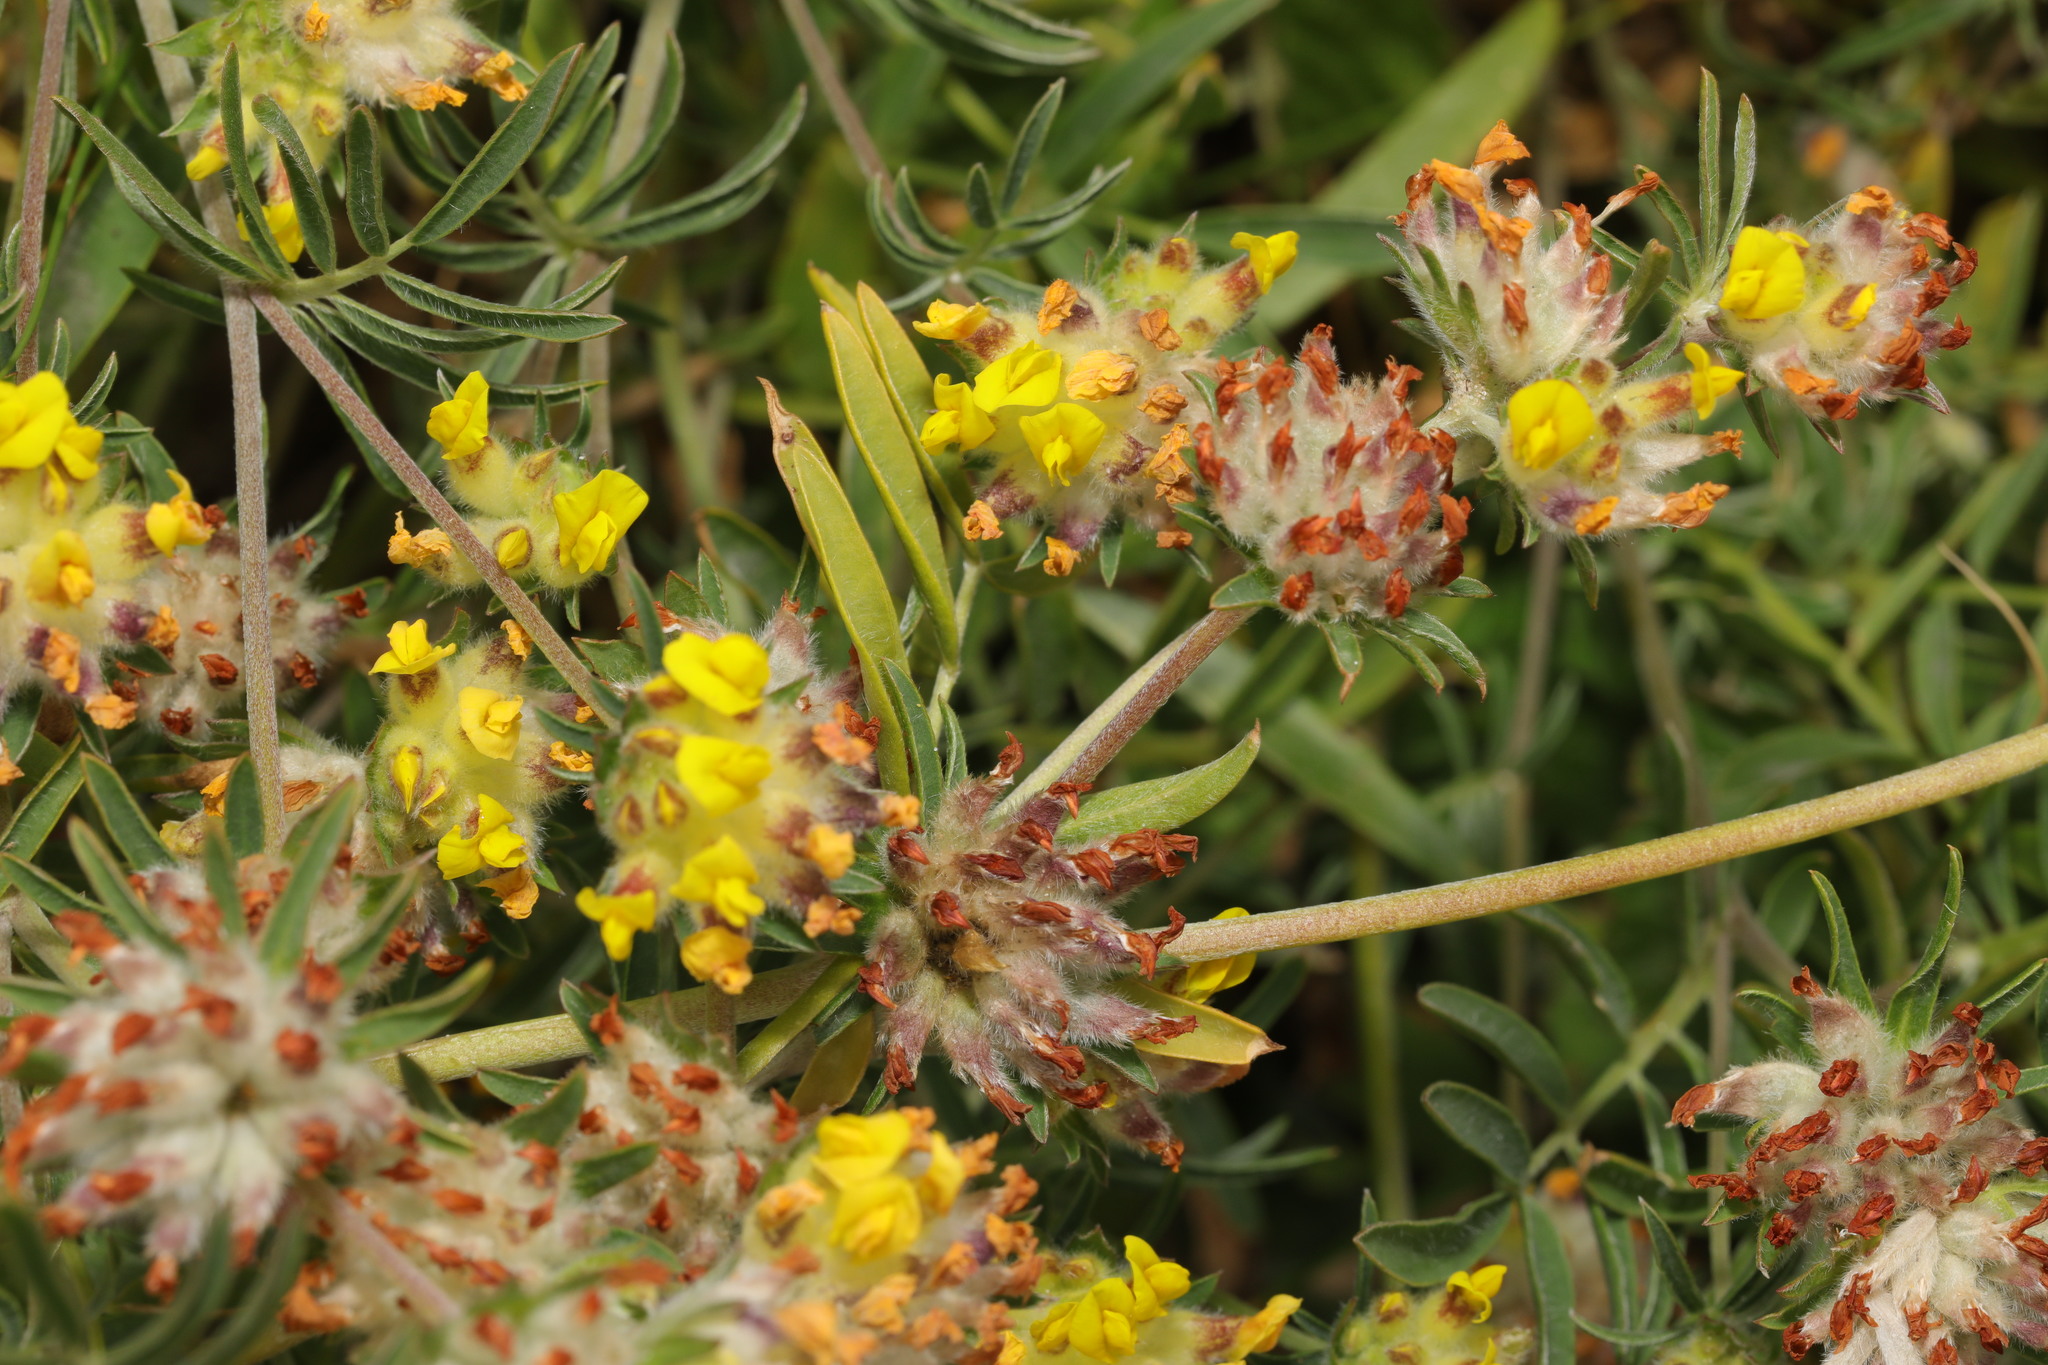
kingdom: Plantae
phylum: Tracheophyta
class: Magnoliopsida
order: Fabales
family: Fabaceae
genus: Anthyllis
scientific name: Anthyllis vulneraria
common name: Kidney vetch
